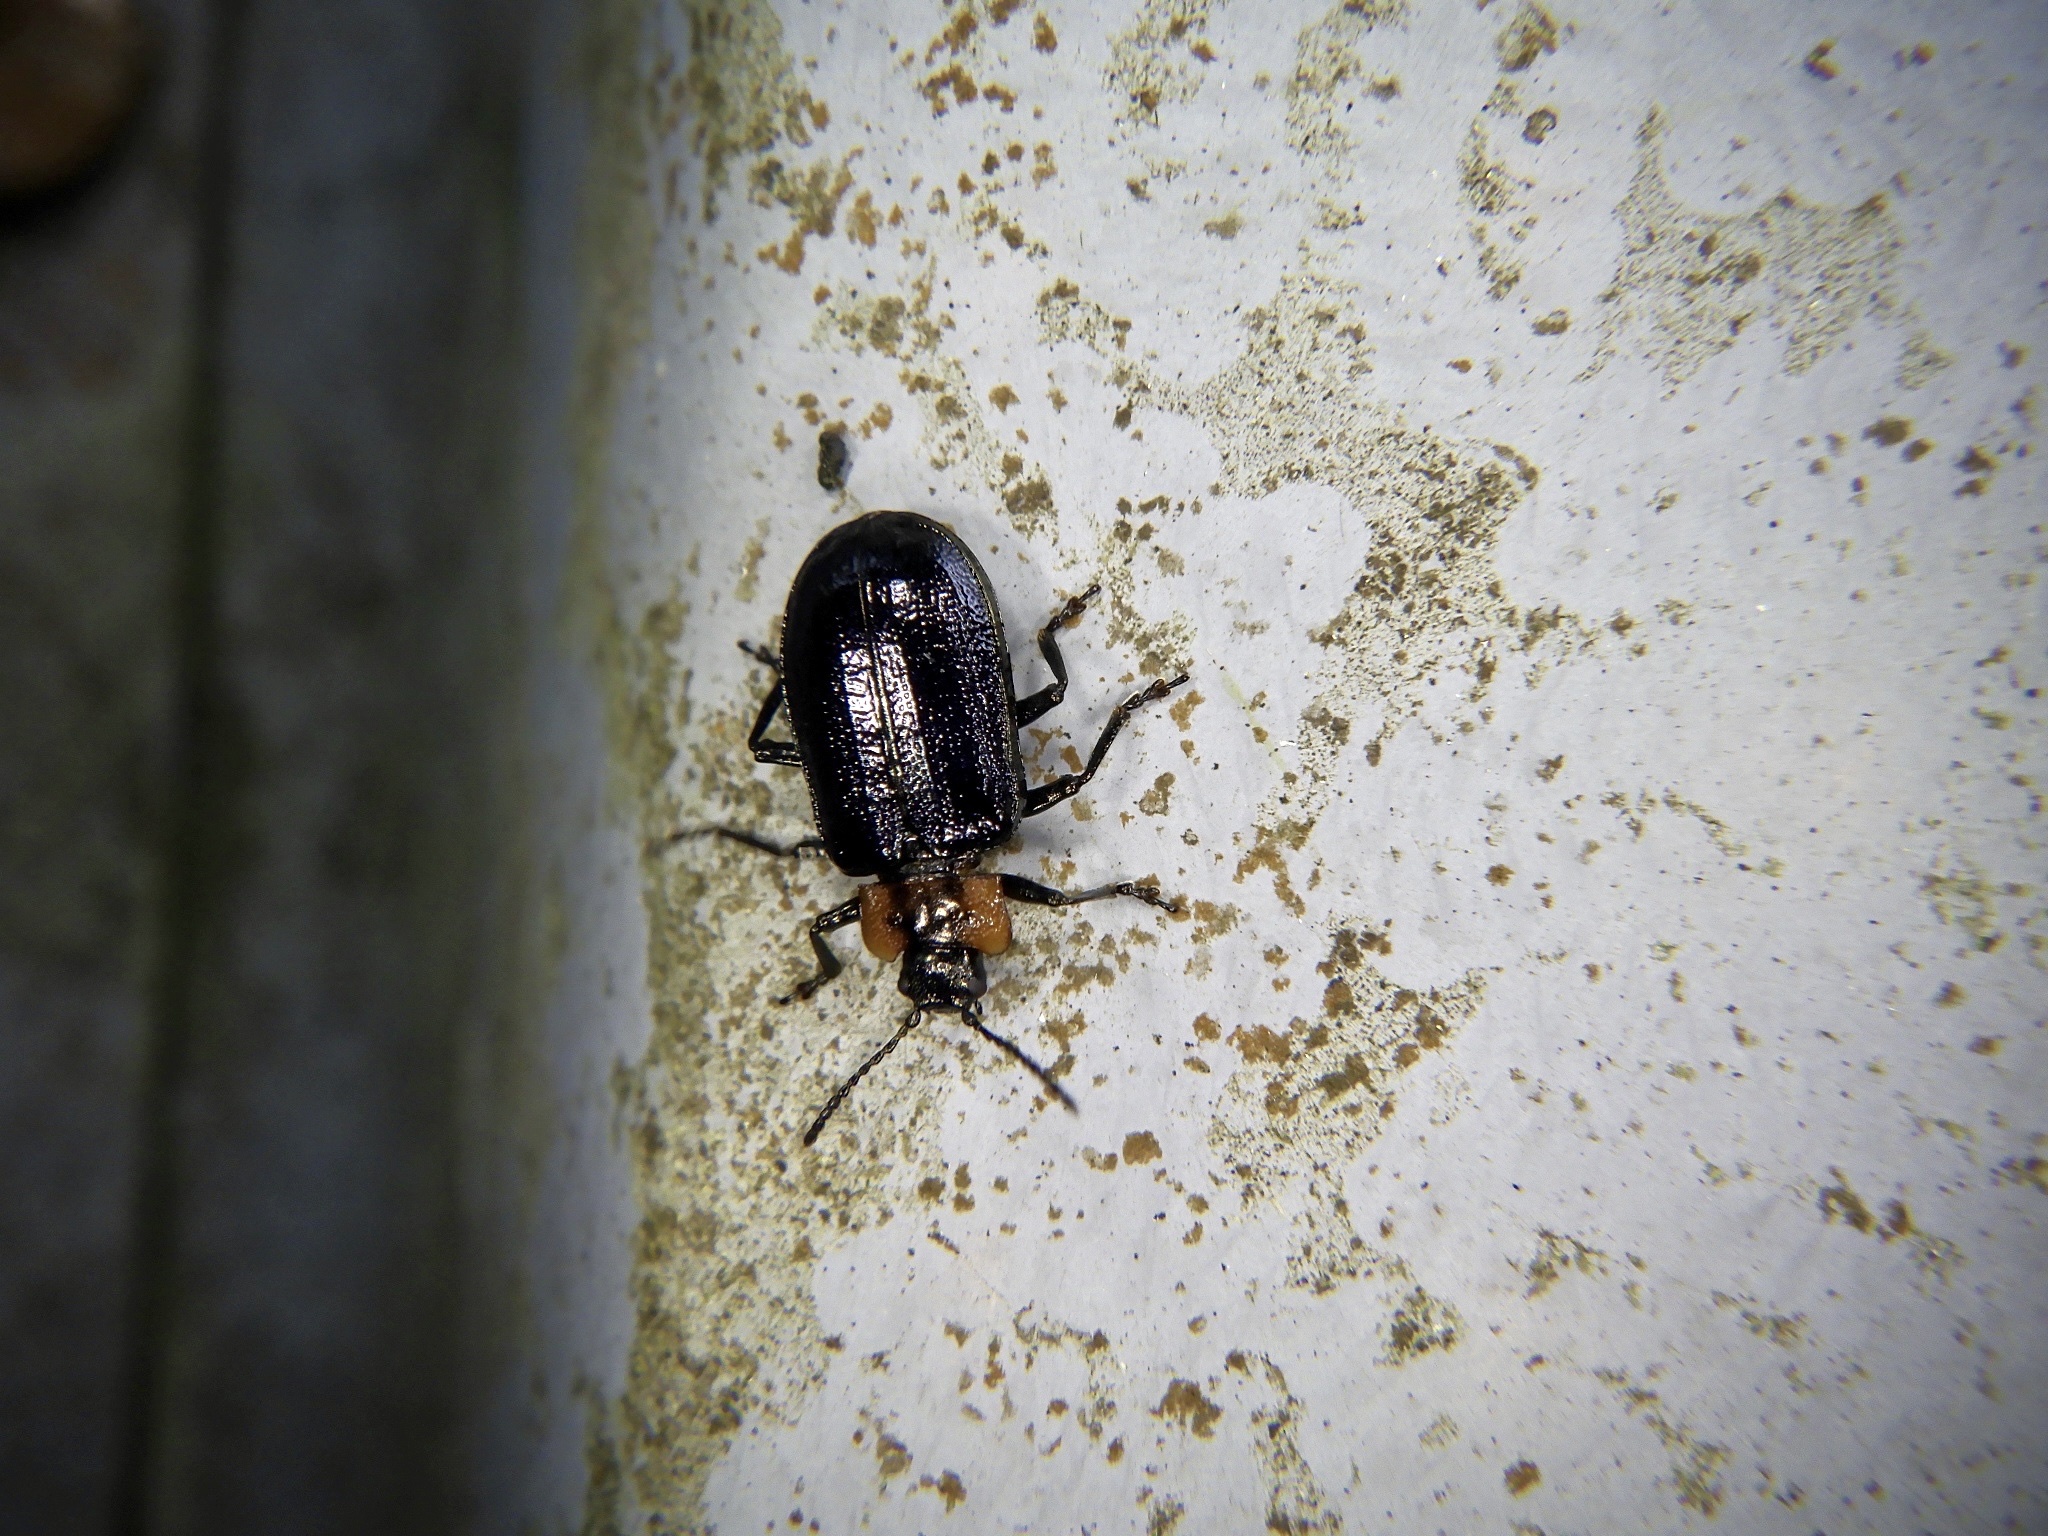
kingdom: Animalia
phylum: Arthropoda
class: Insecta
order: Coleoptera
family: Chrysomelidae
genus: Gastrolina
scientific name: Gastrolina depressa
